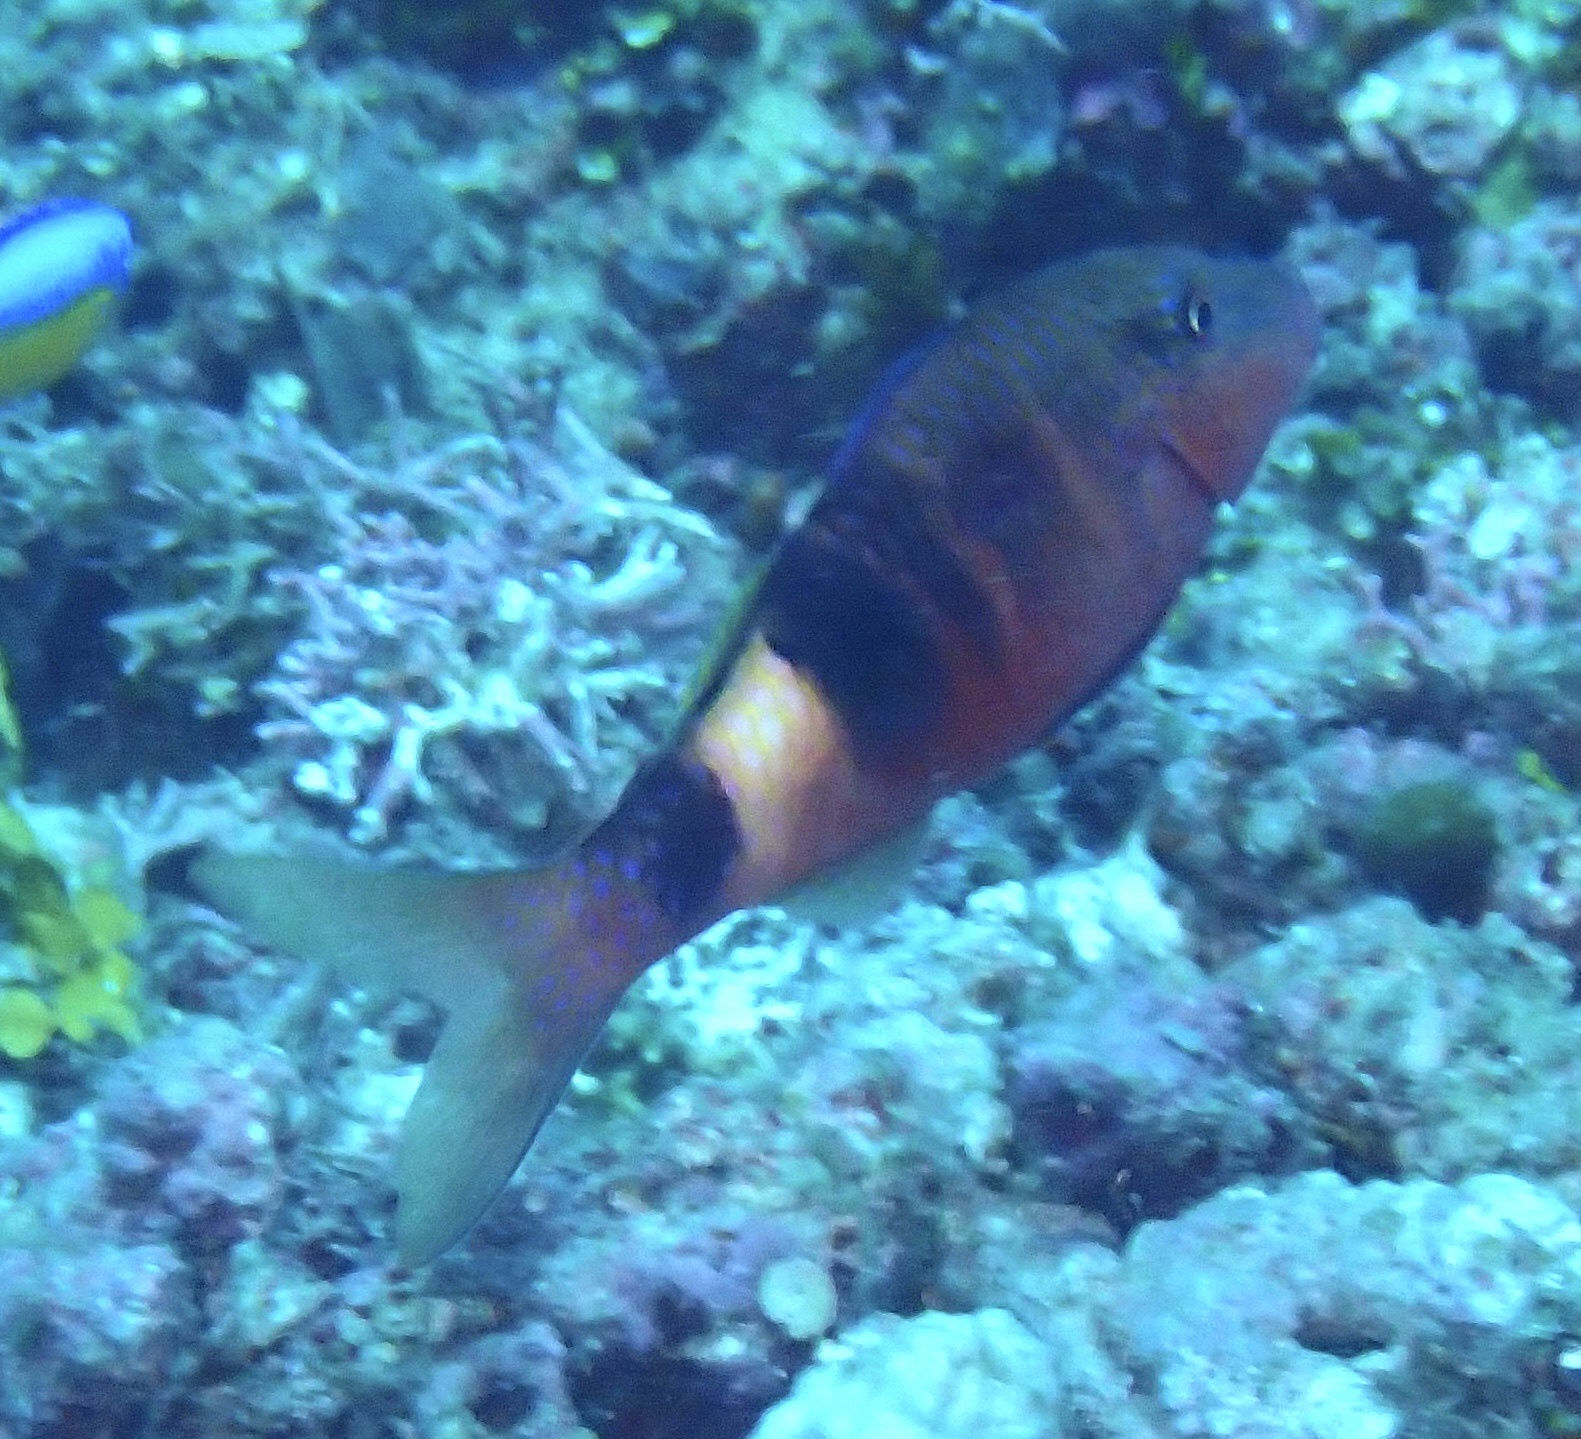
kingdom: Animalia
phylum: Chordata
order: Perciformes
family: Mullidae
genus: Parupeneus
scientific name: Parupeneus multifasciatus
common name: Manybar goatfish
